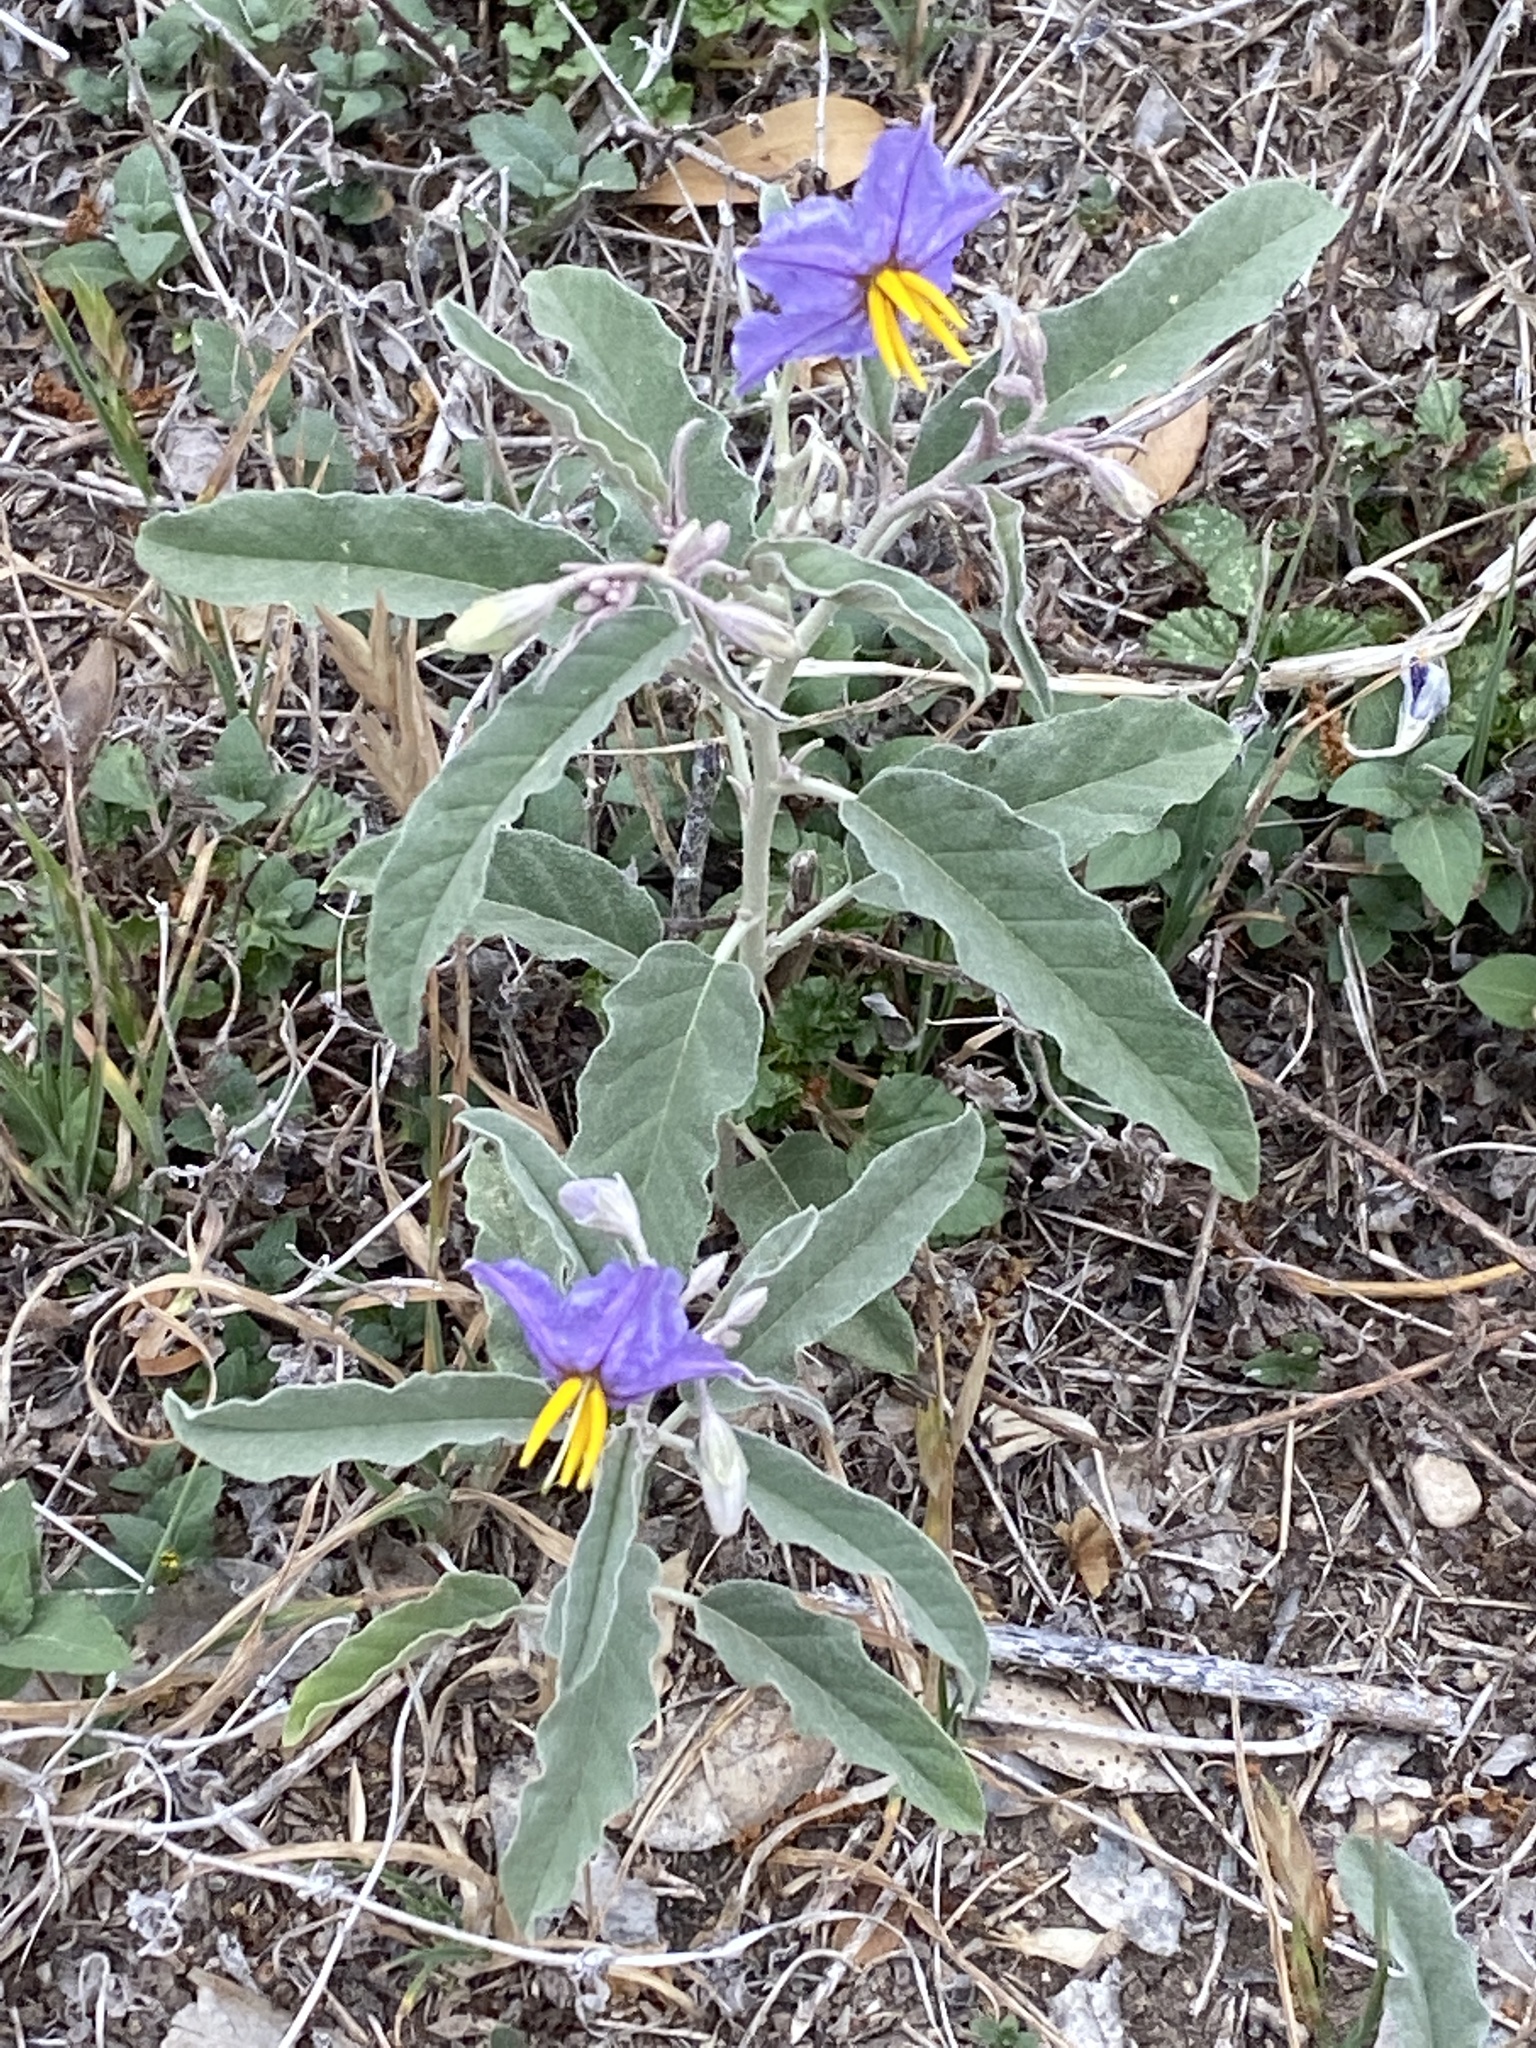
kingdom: Plantae
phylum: Tracheophyta
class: Magnoliopsida
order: Solanales
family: Solanaceae
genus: Solanum
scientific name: Solanum elaeagnifolium
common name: Silverleaf nightshade
